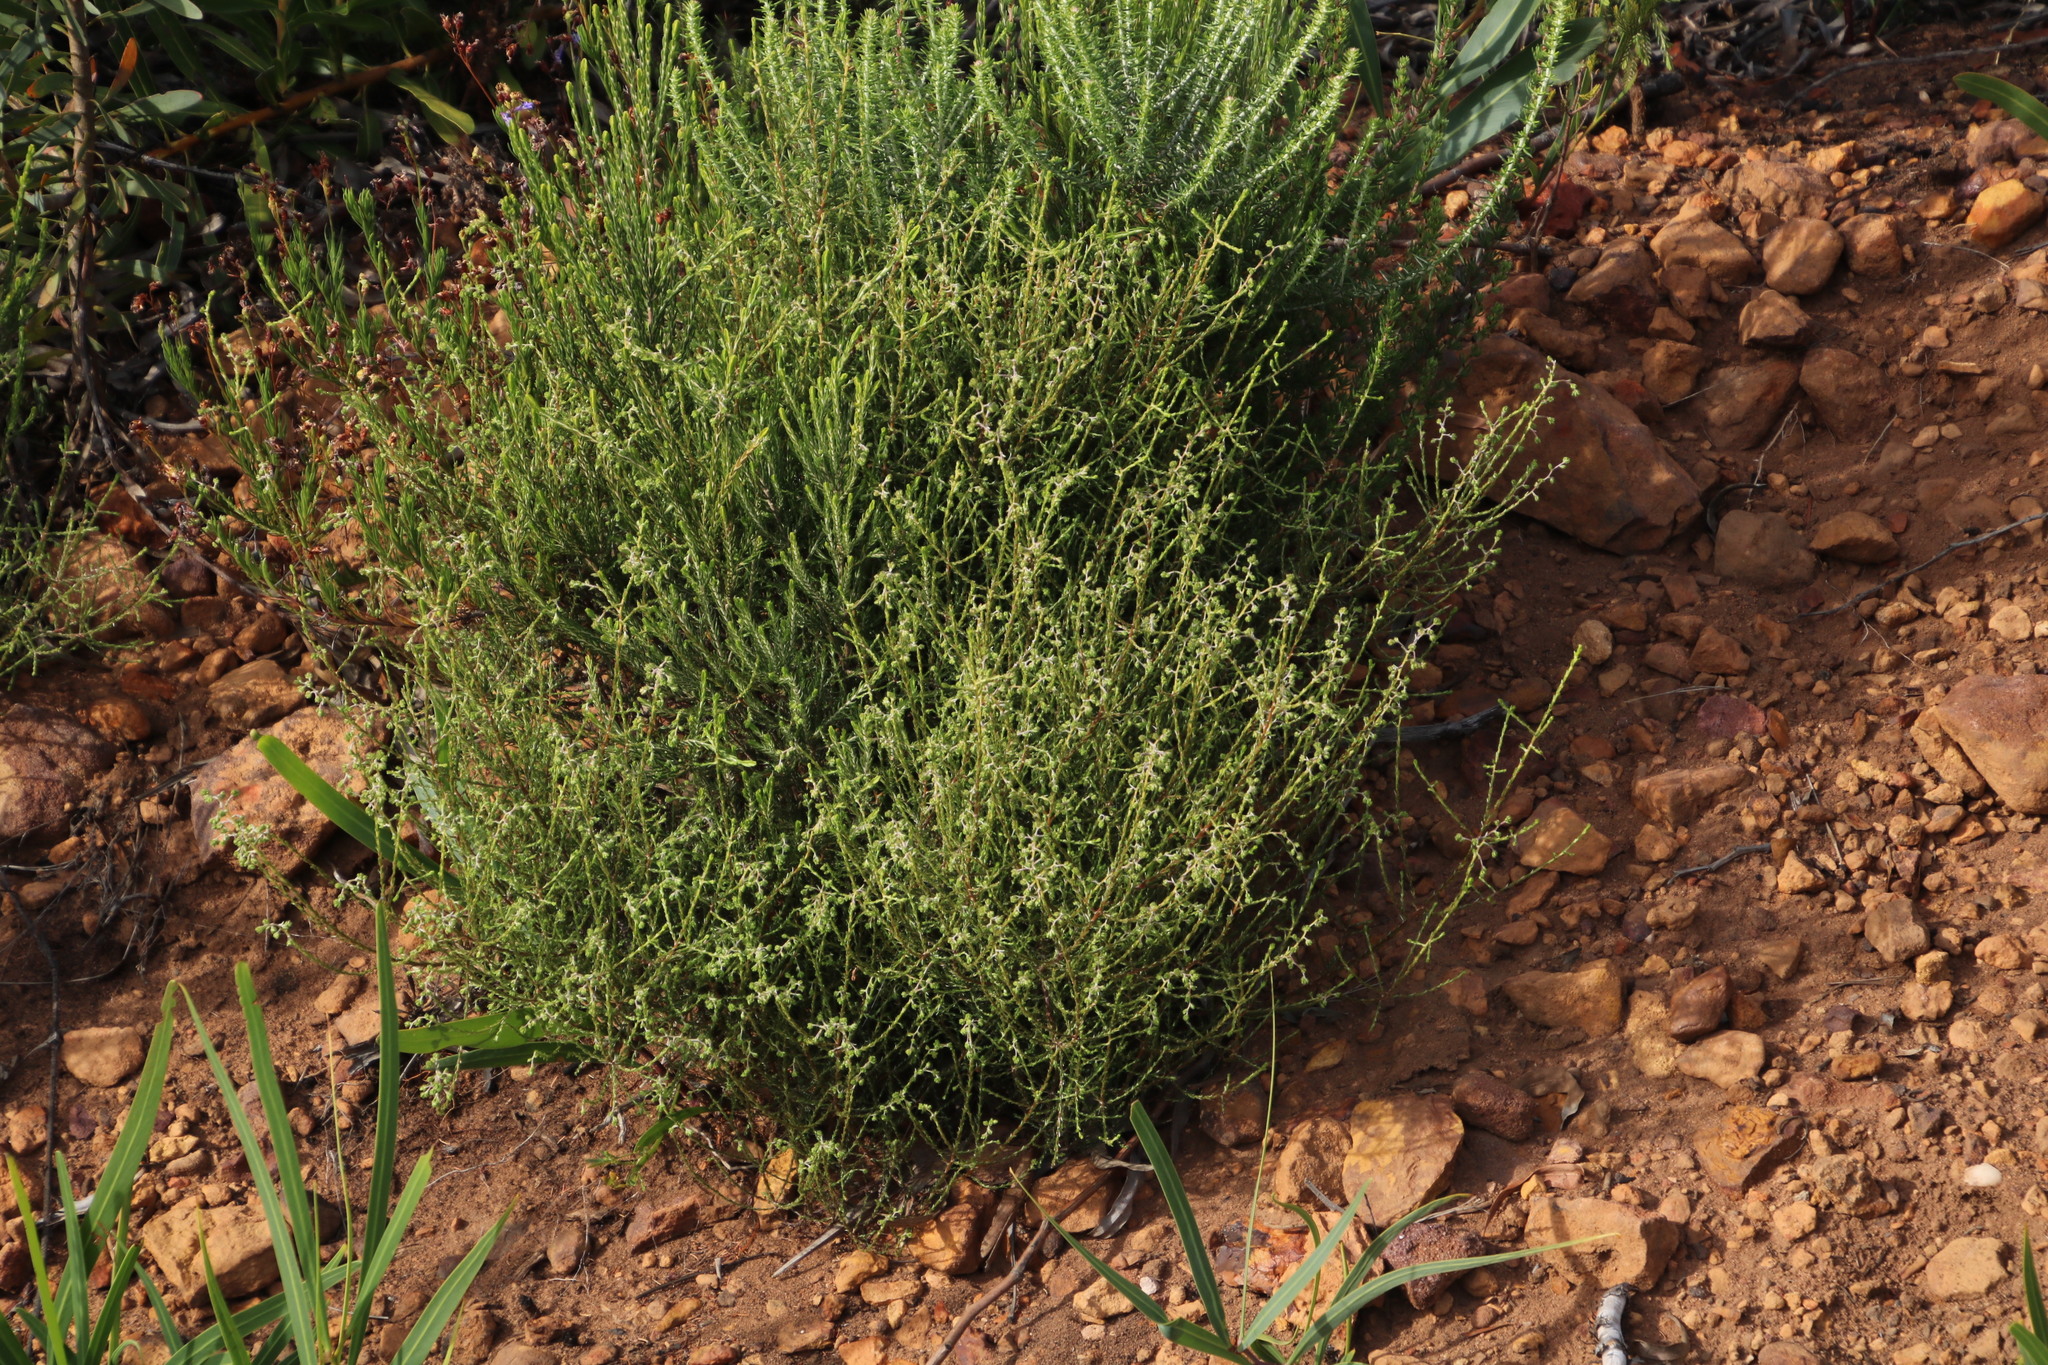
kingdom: Plantae
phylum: Tracheophyta
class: Magnoliopsida
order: Asterales
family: Asteraceae
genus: Myrovernix
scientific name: Myrovernix scaber
